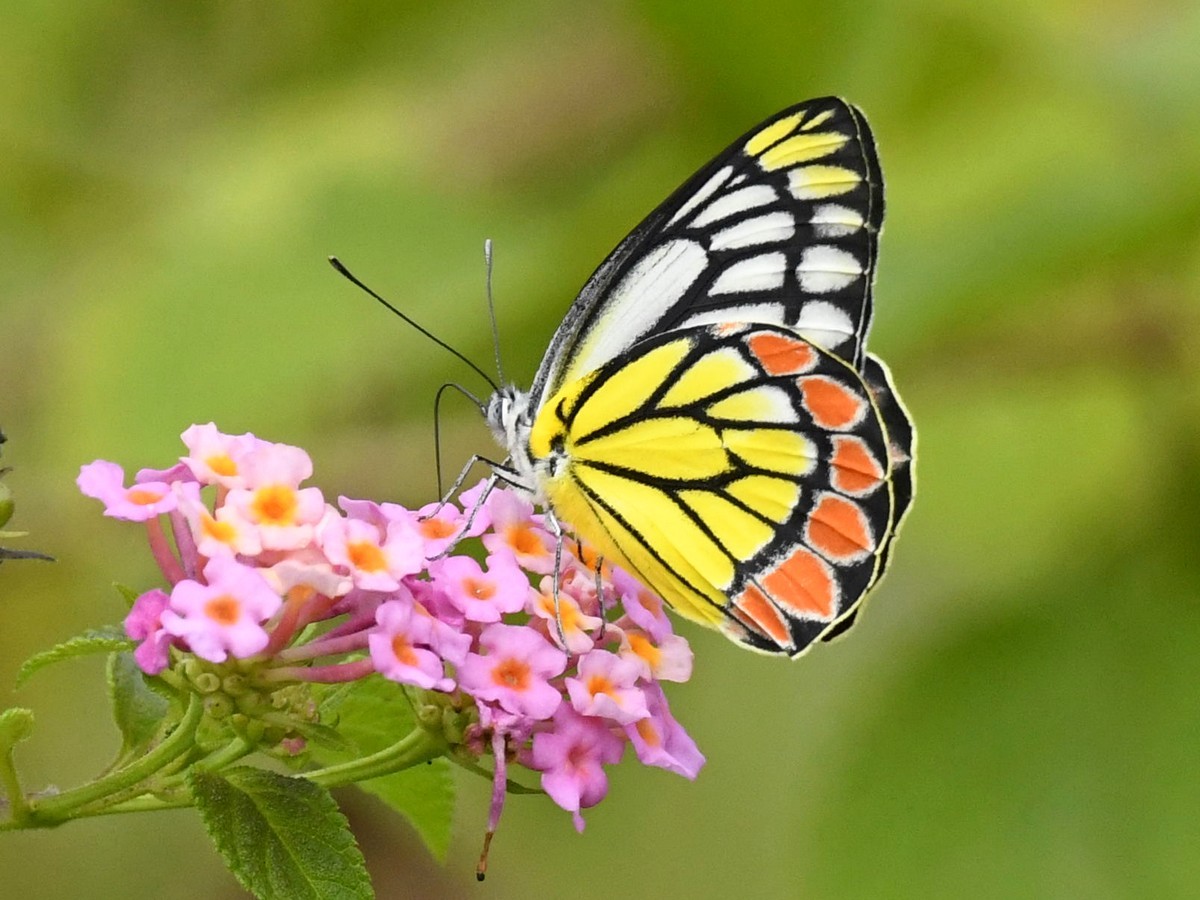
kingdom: Animalia
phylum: Arthropoda
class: Insecta
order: Lepidoptera
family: Pieridae
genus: Delias
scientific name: Delias eucharis
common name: Common jezebel
